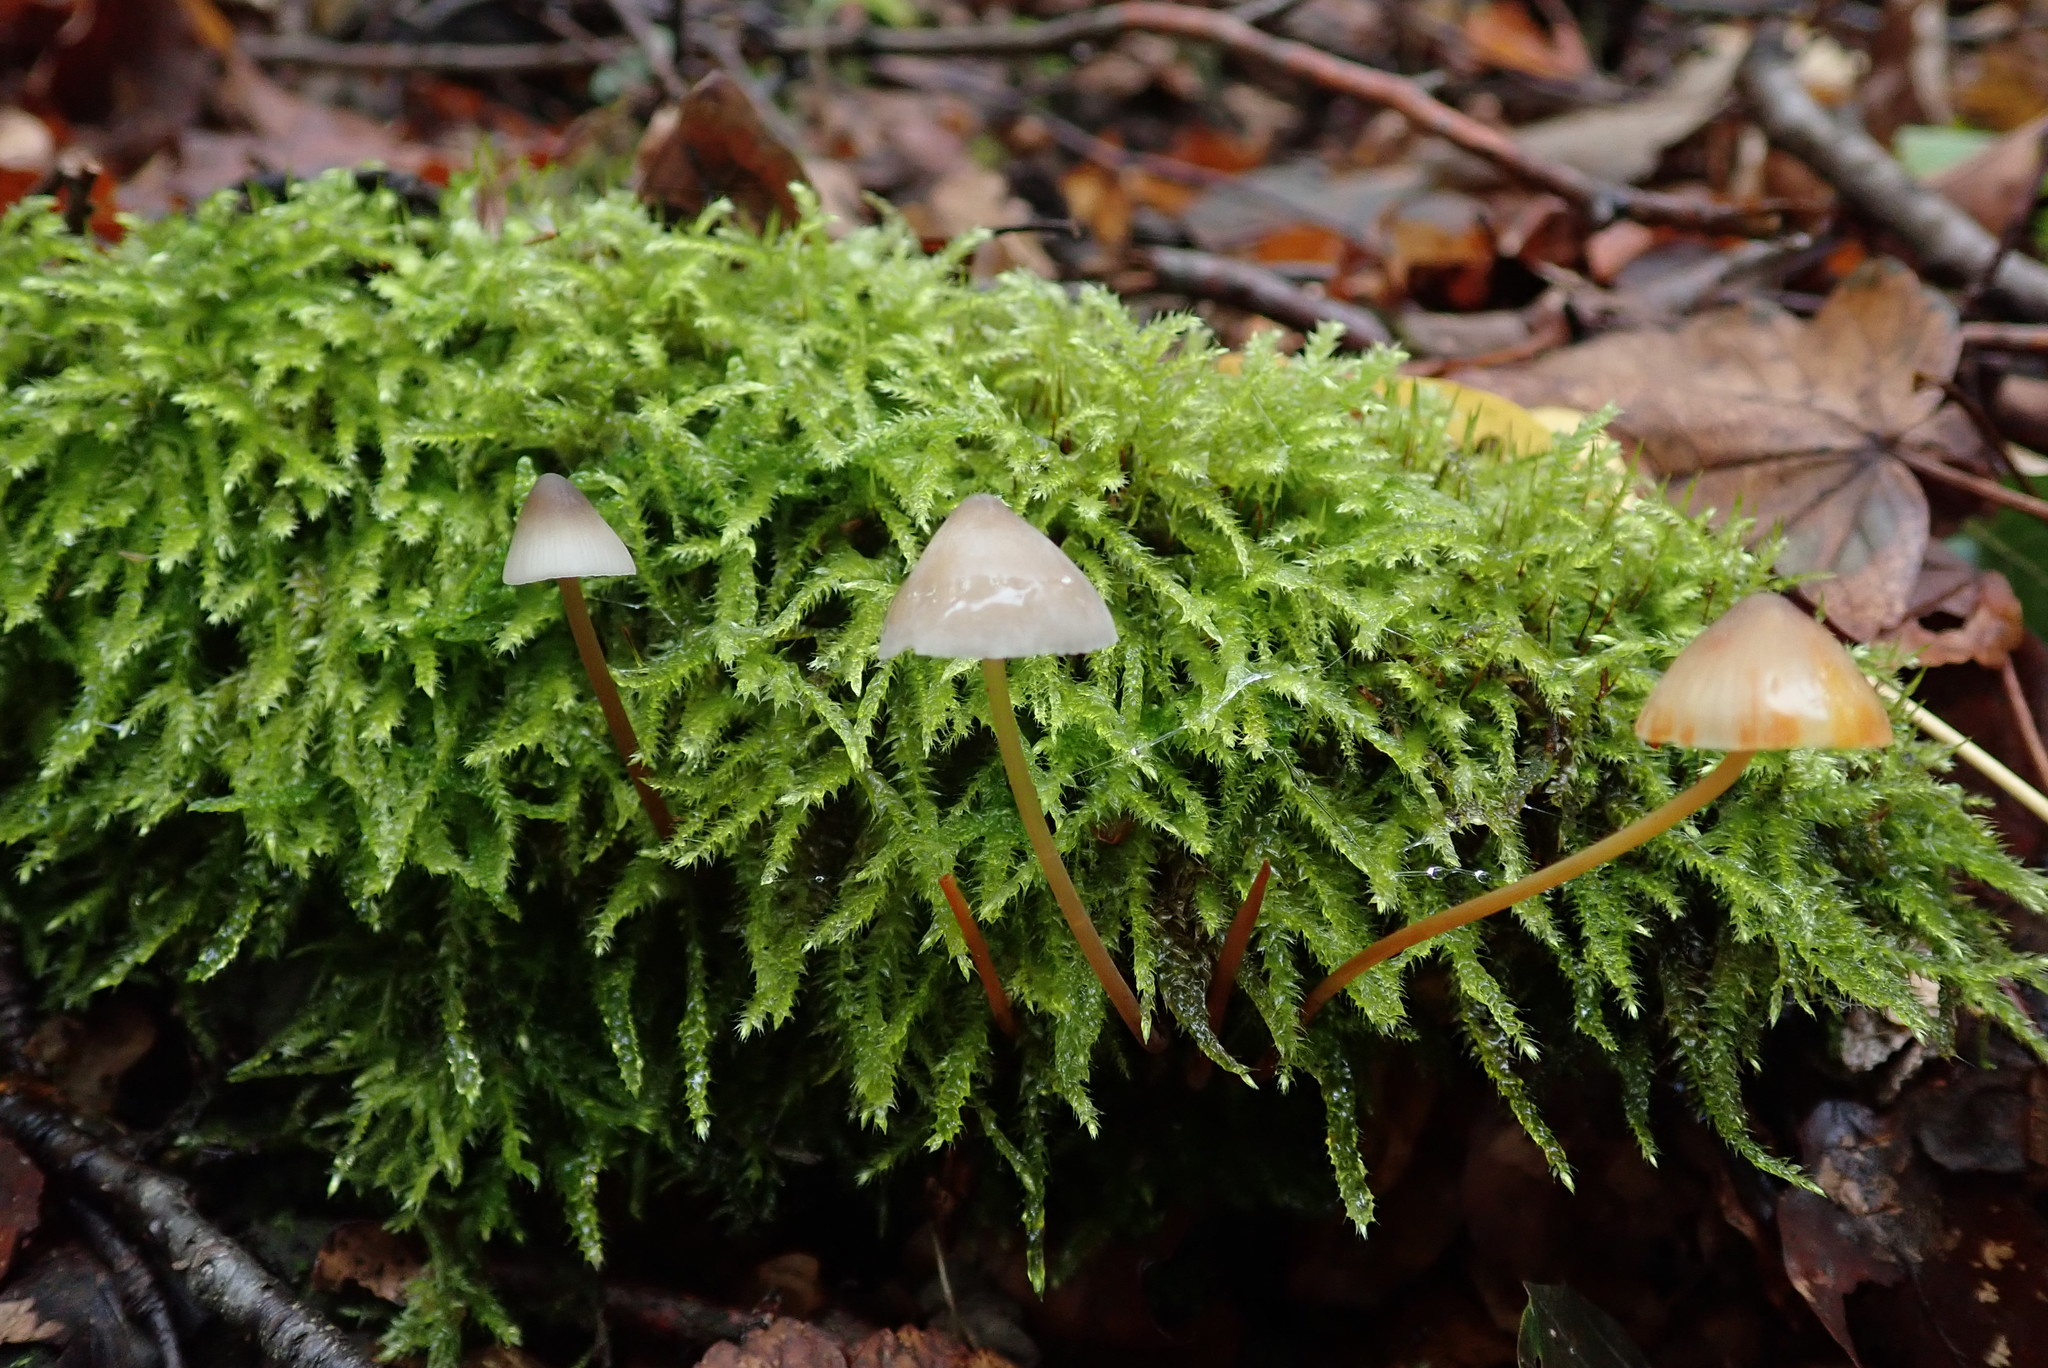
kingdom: Fungi
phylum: Basidiomycota
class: Agaricomycetes
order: Agaricales
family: Mycenaceae
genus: Mycena
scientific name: Mycena crocata
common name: Saffrondrop bonnet
